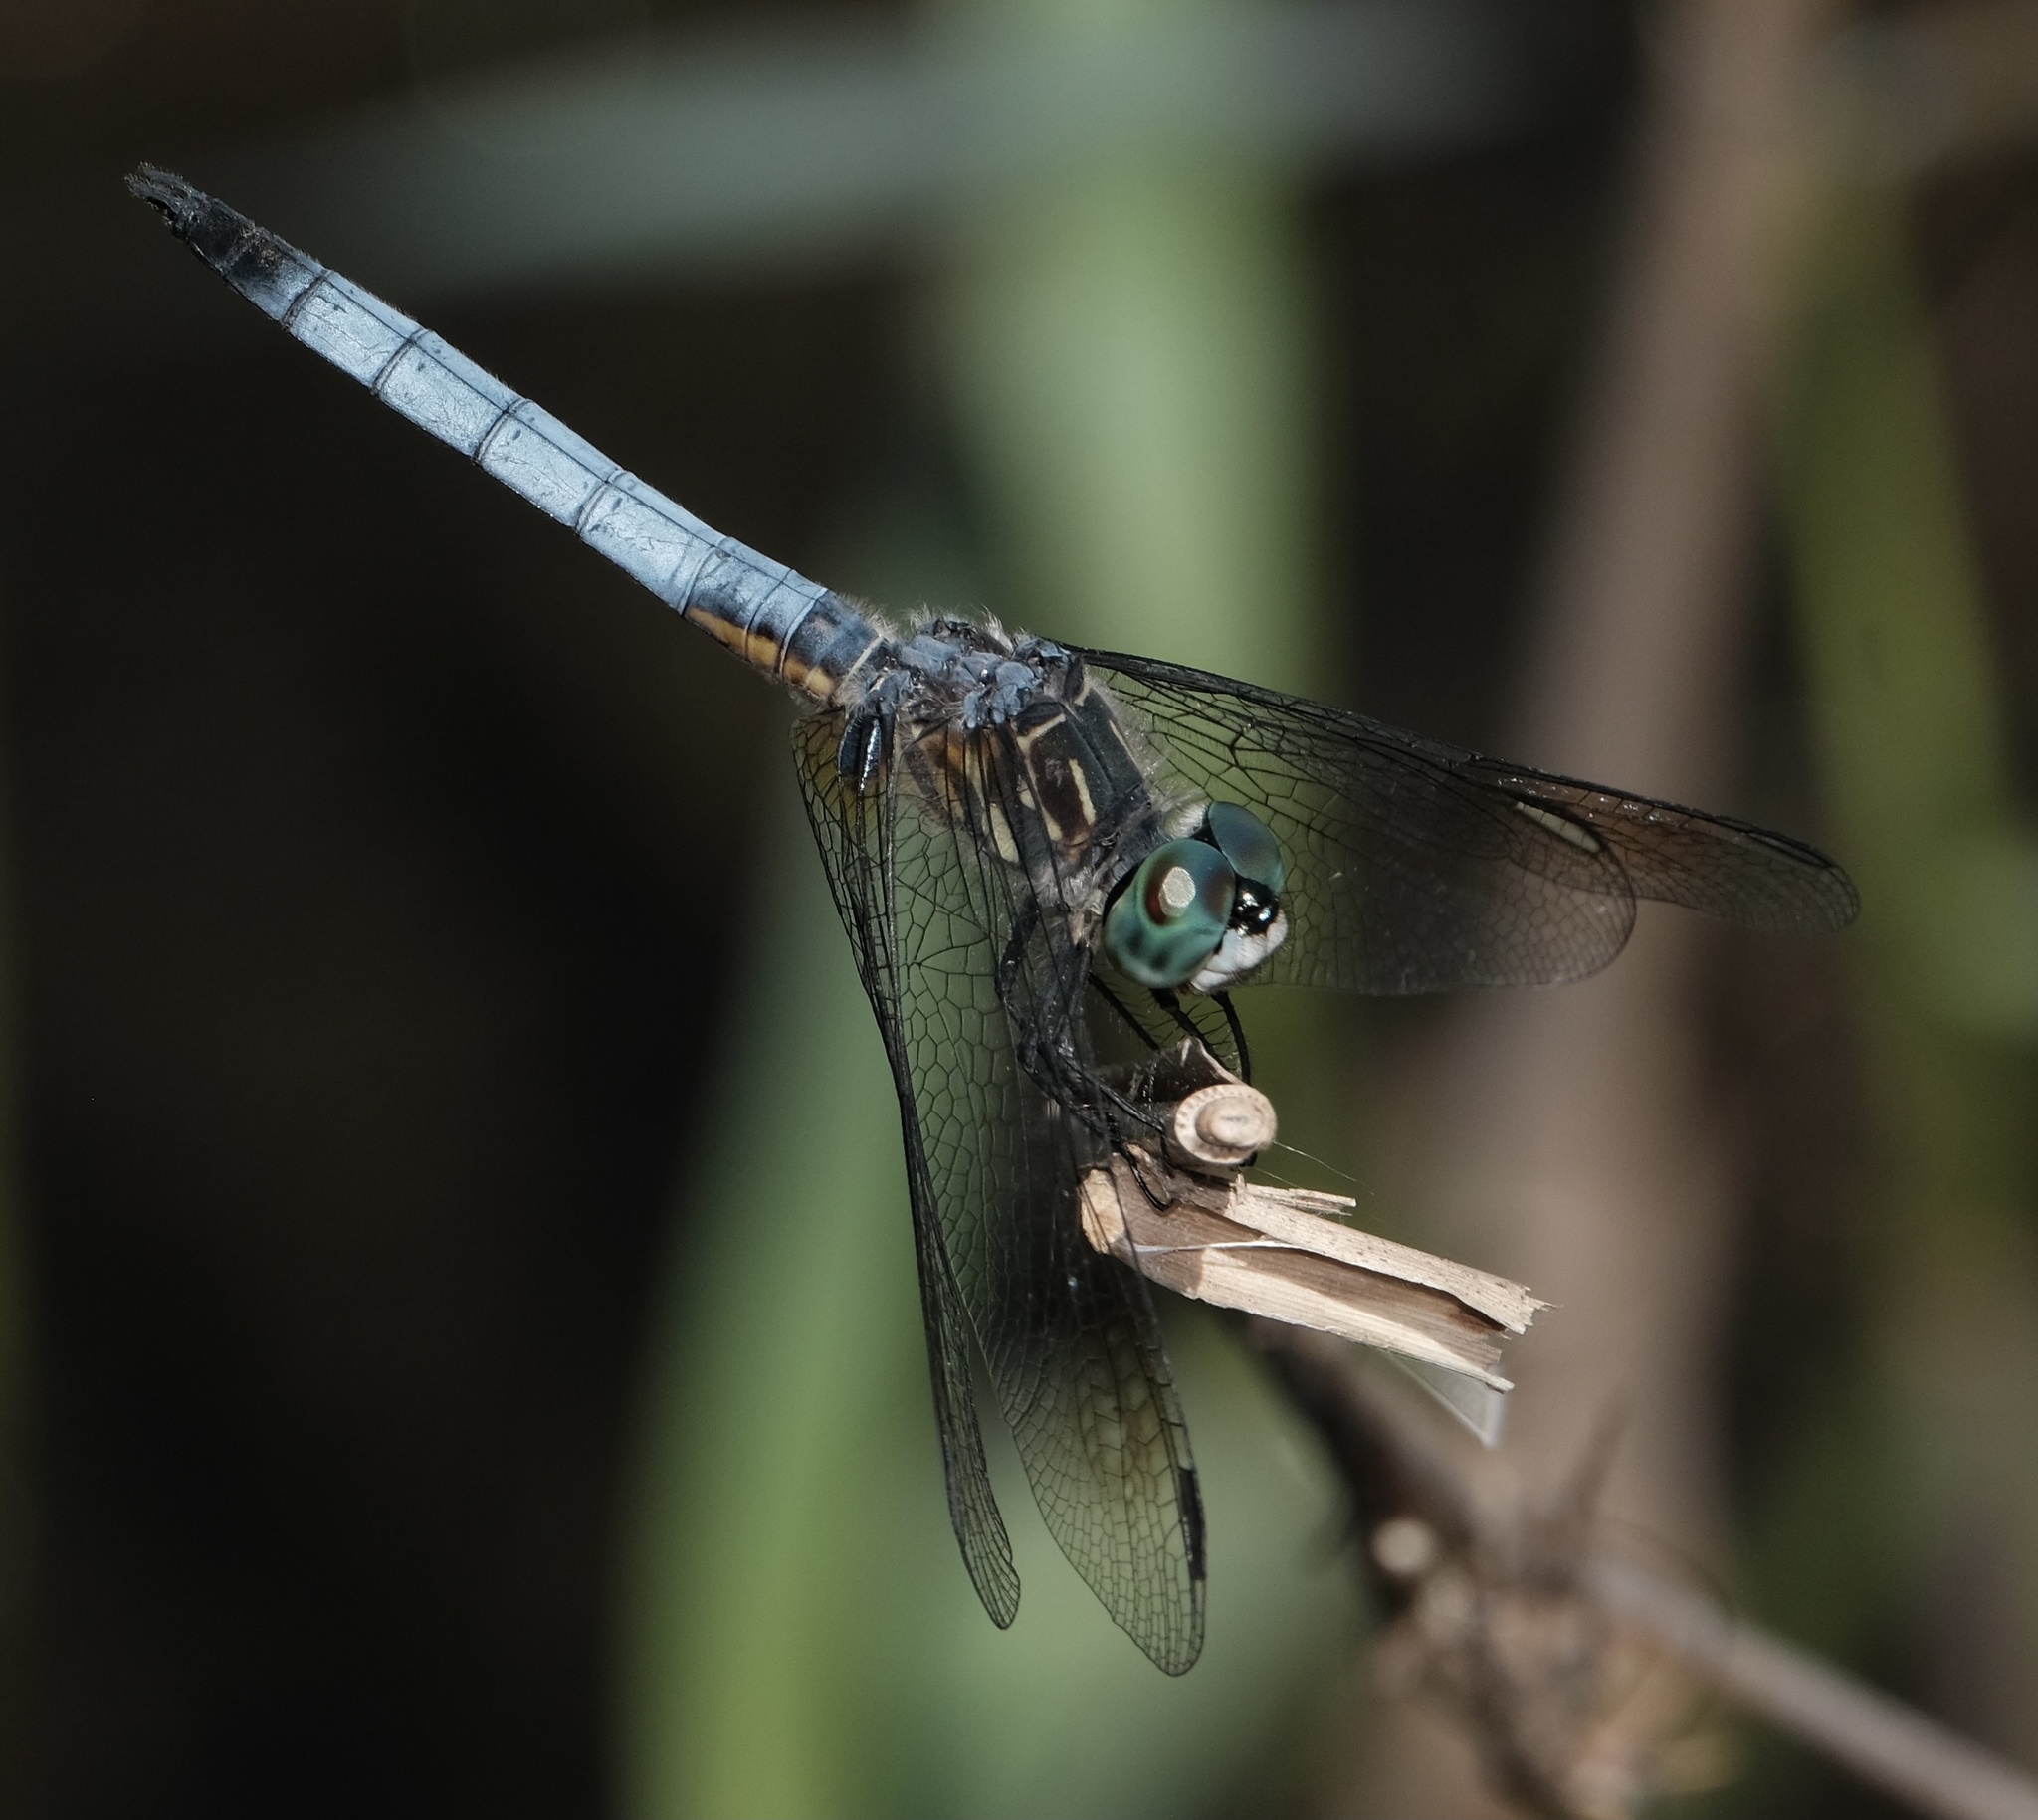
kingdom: Animalia
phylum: Arthropoda
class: Insecta
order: Odonata
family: Libellulidae
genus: Pachydiplax
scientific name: Pachydiplax longipennis
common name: Blue dasher
